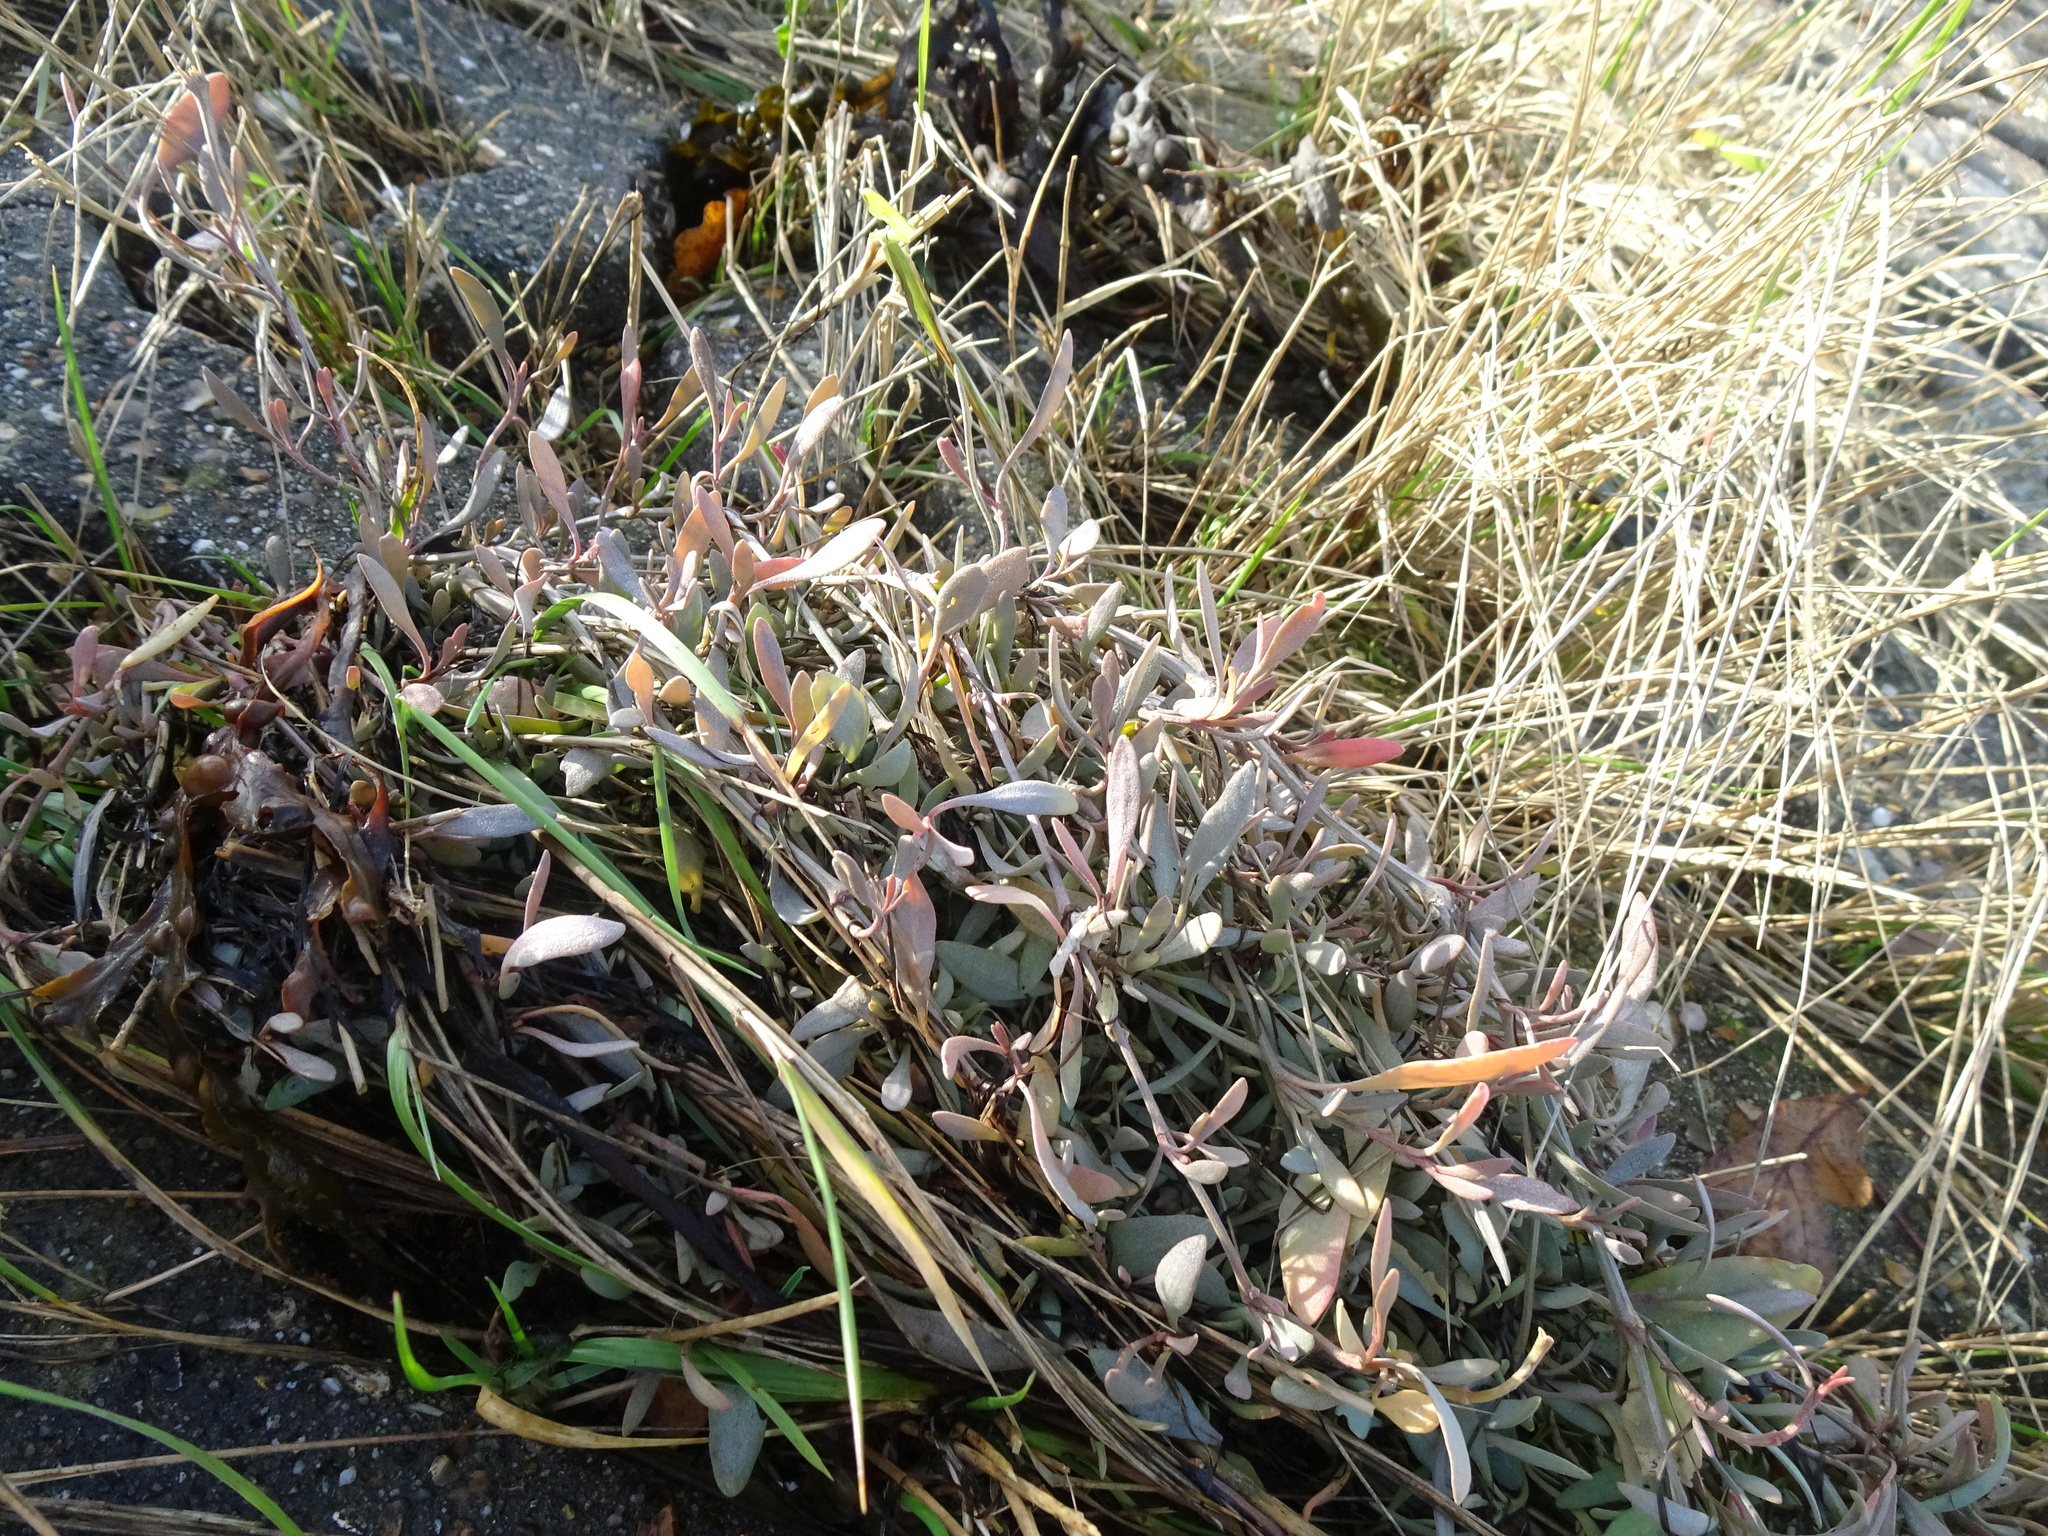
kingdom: Plantae
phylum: Tracheophyta
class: Magnoliopsida
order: Caryophyllales
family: Amaranthaceae
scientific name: Amaranthaceae
